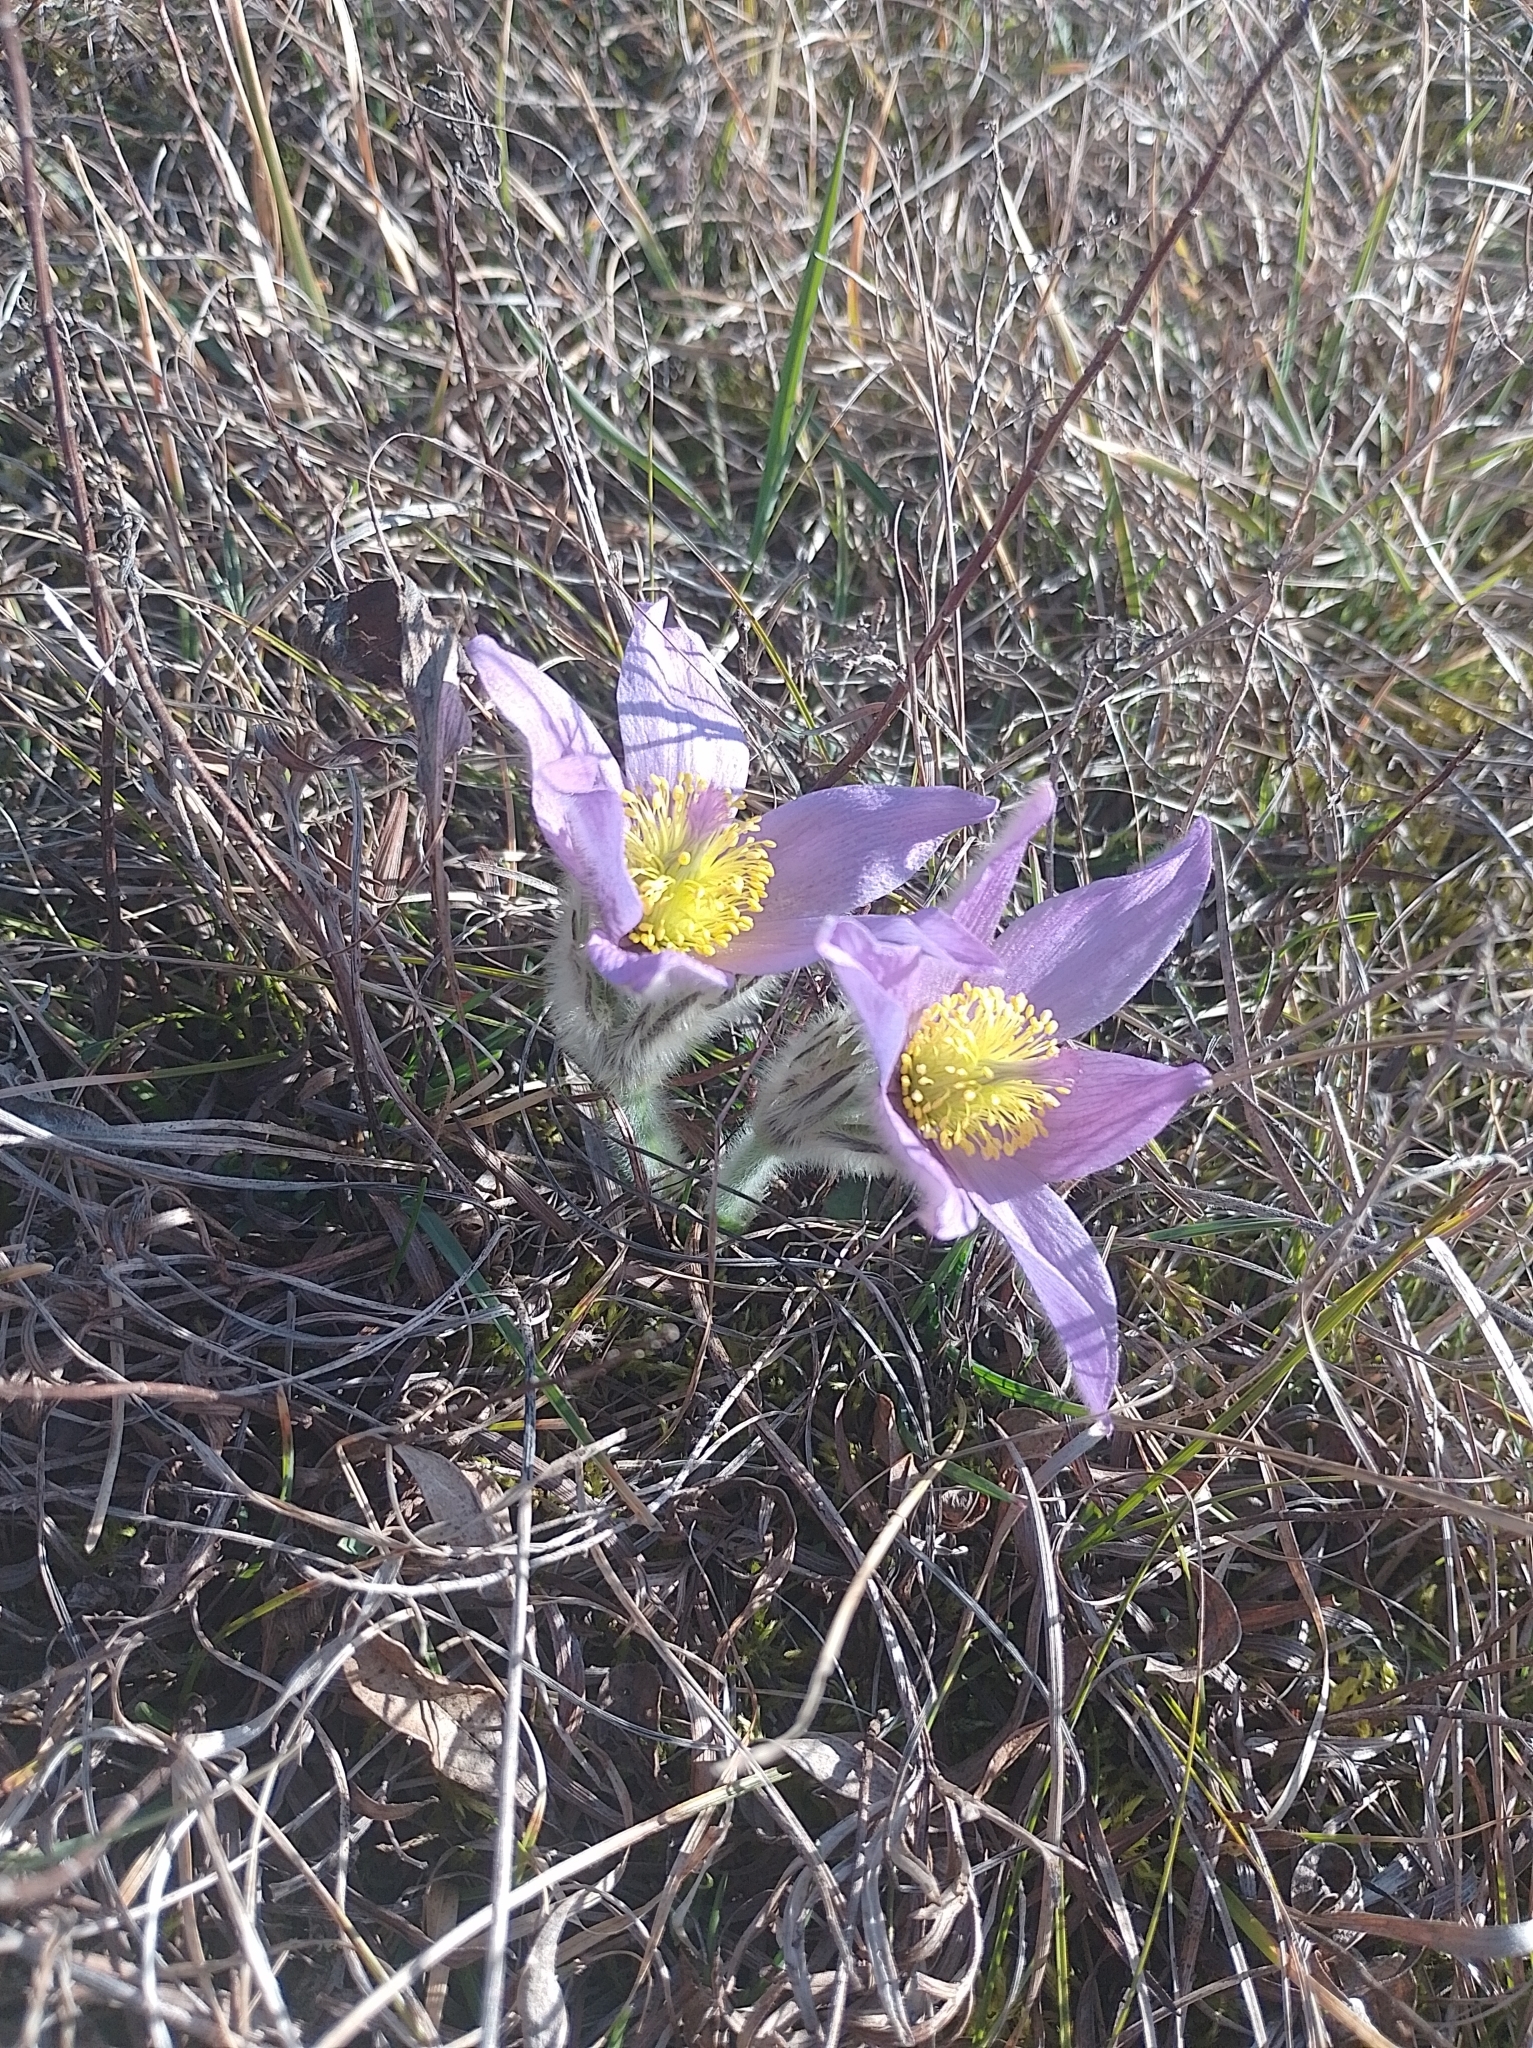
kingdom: Plantae
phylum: Tracheophyta
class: Magnoliopsida
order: Ranunculales
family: Ranunculaceae
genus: Pulsatilla
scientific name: Pulsatilla grandis
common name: Greater pasque flower
